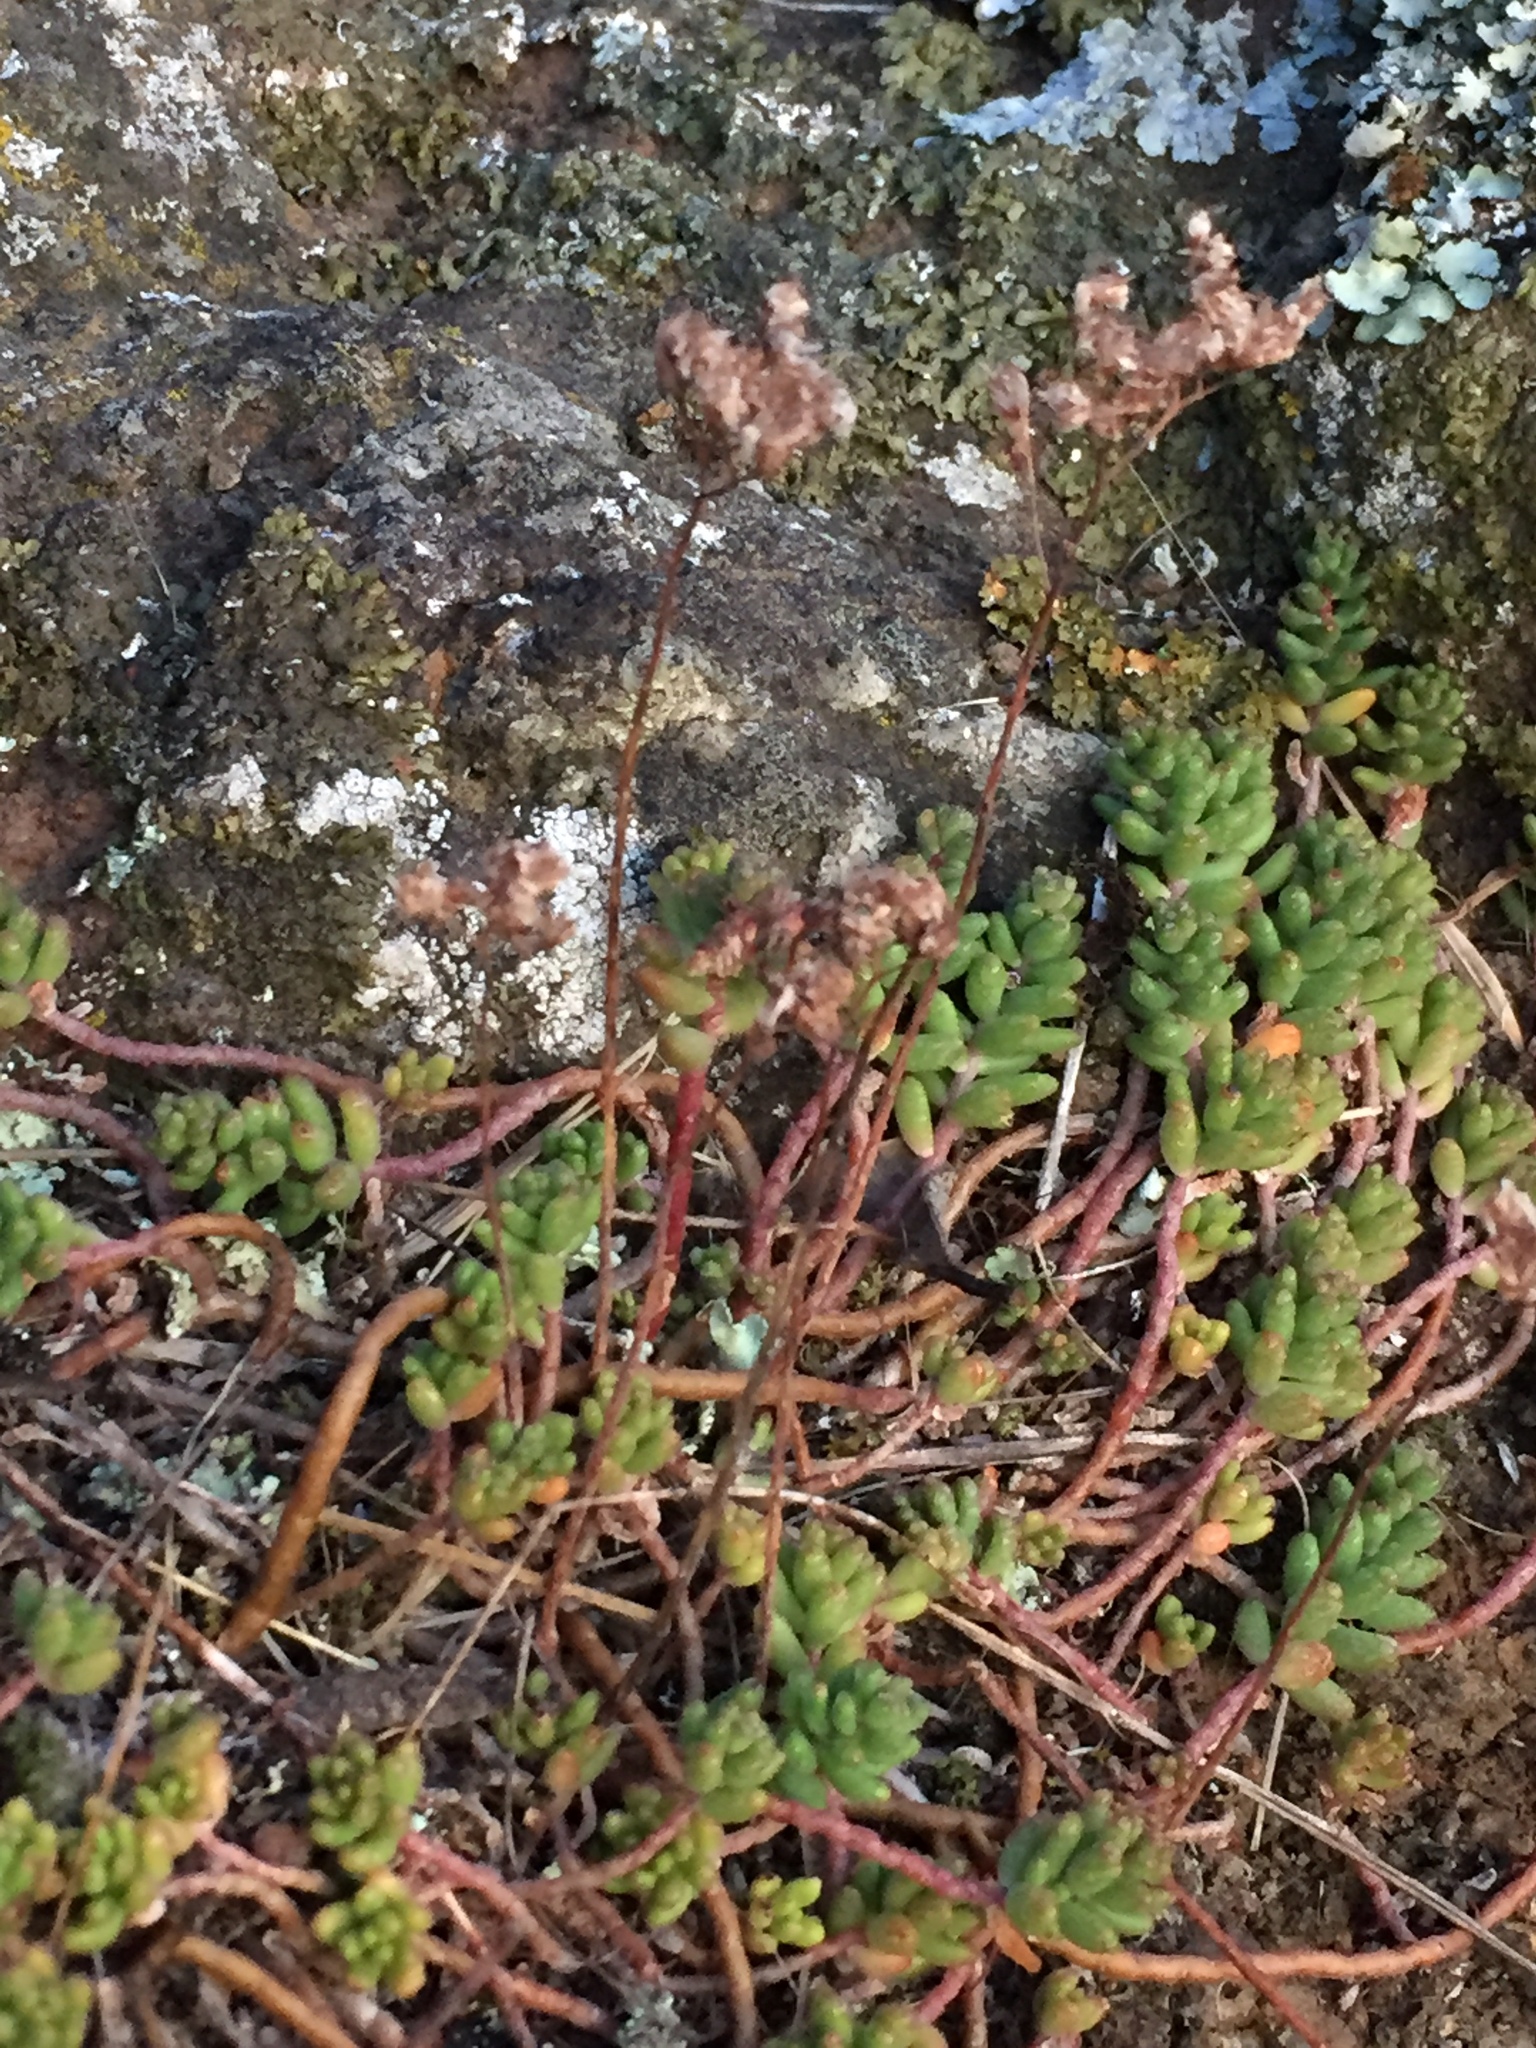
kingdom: Plantae
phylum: Tracheophyta
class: Magnoliopsida
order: Saxifragales
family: Crassulaceae
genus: Sedum
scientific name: Sedum album
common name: White stonecrop
